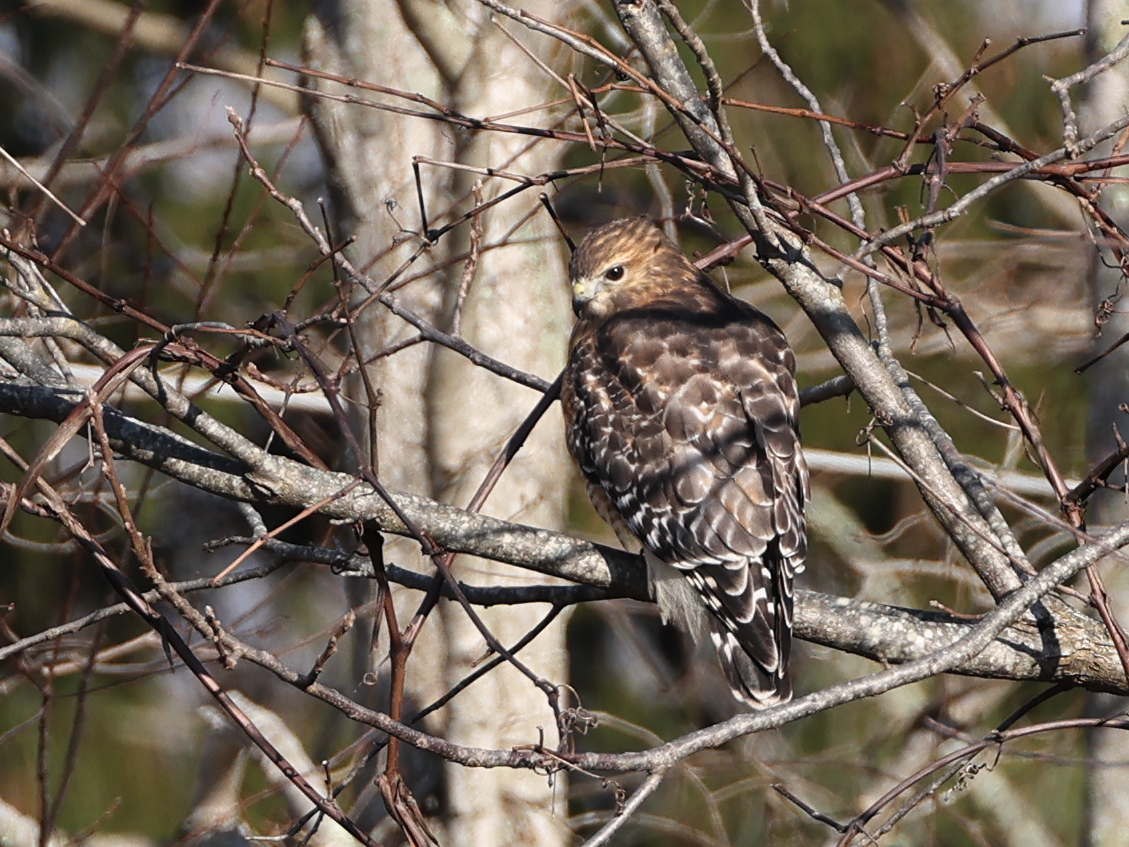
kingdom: Animalia
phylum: Chordata
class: Aves
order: Accipitriformes
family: Accipitridae
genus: Buteo
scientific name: Buteo lineatus
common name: Red-shouldered hawk
